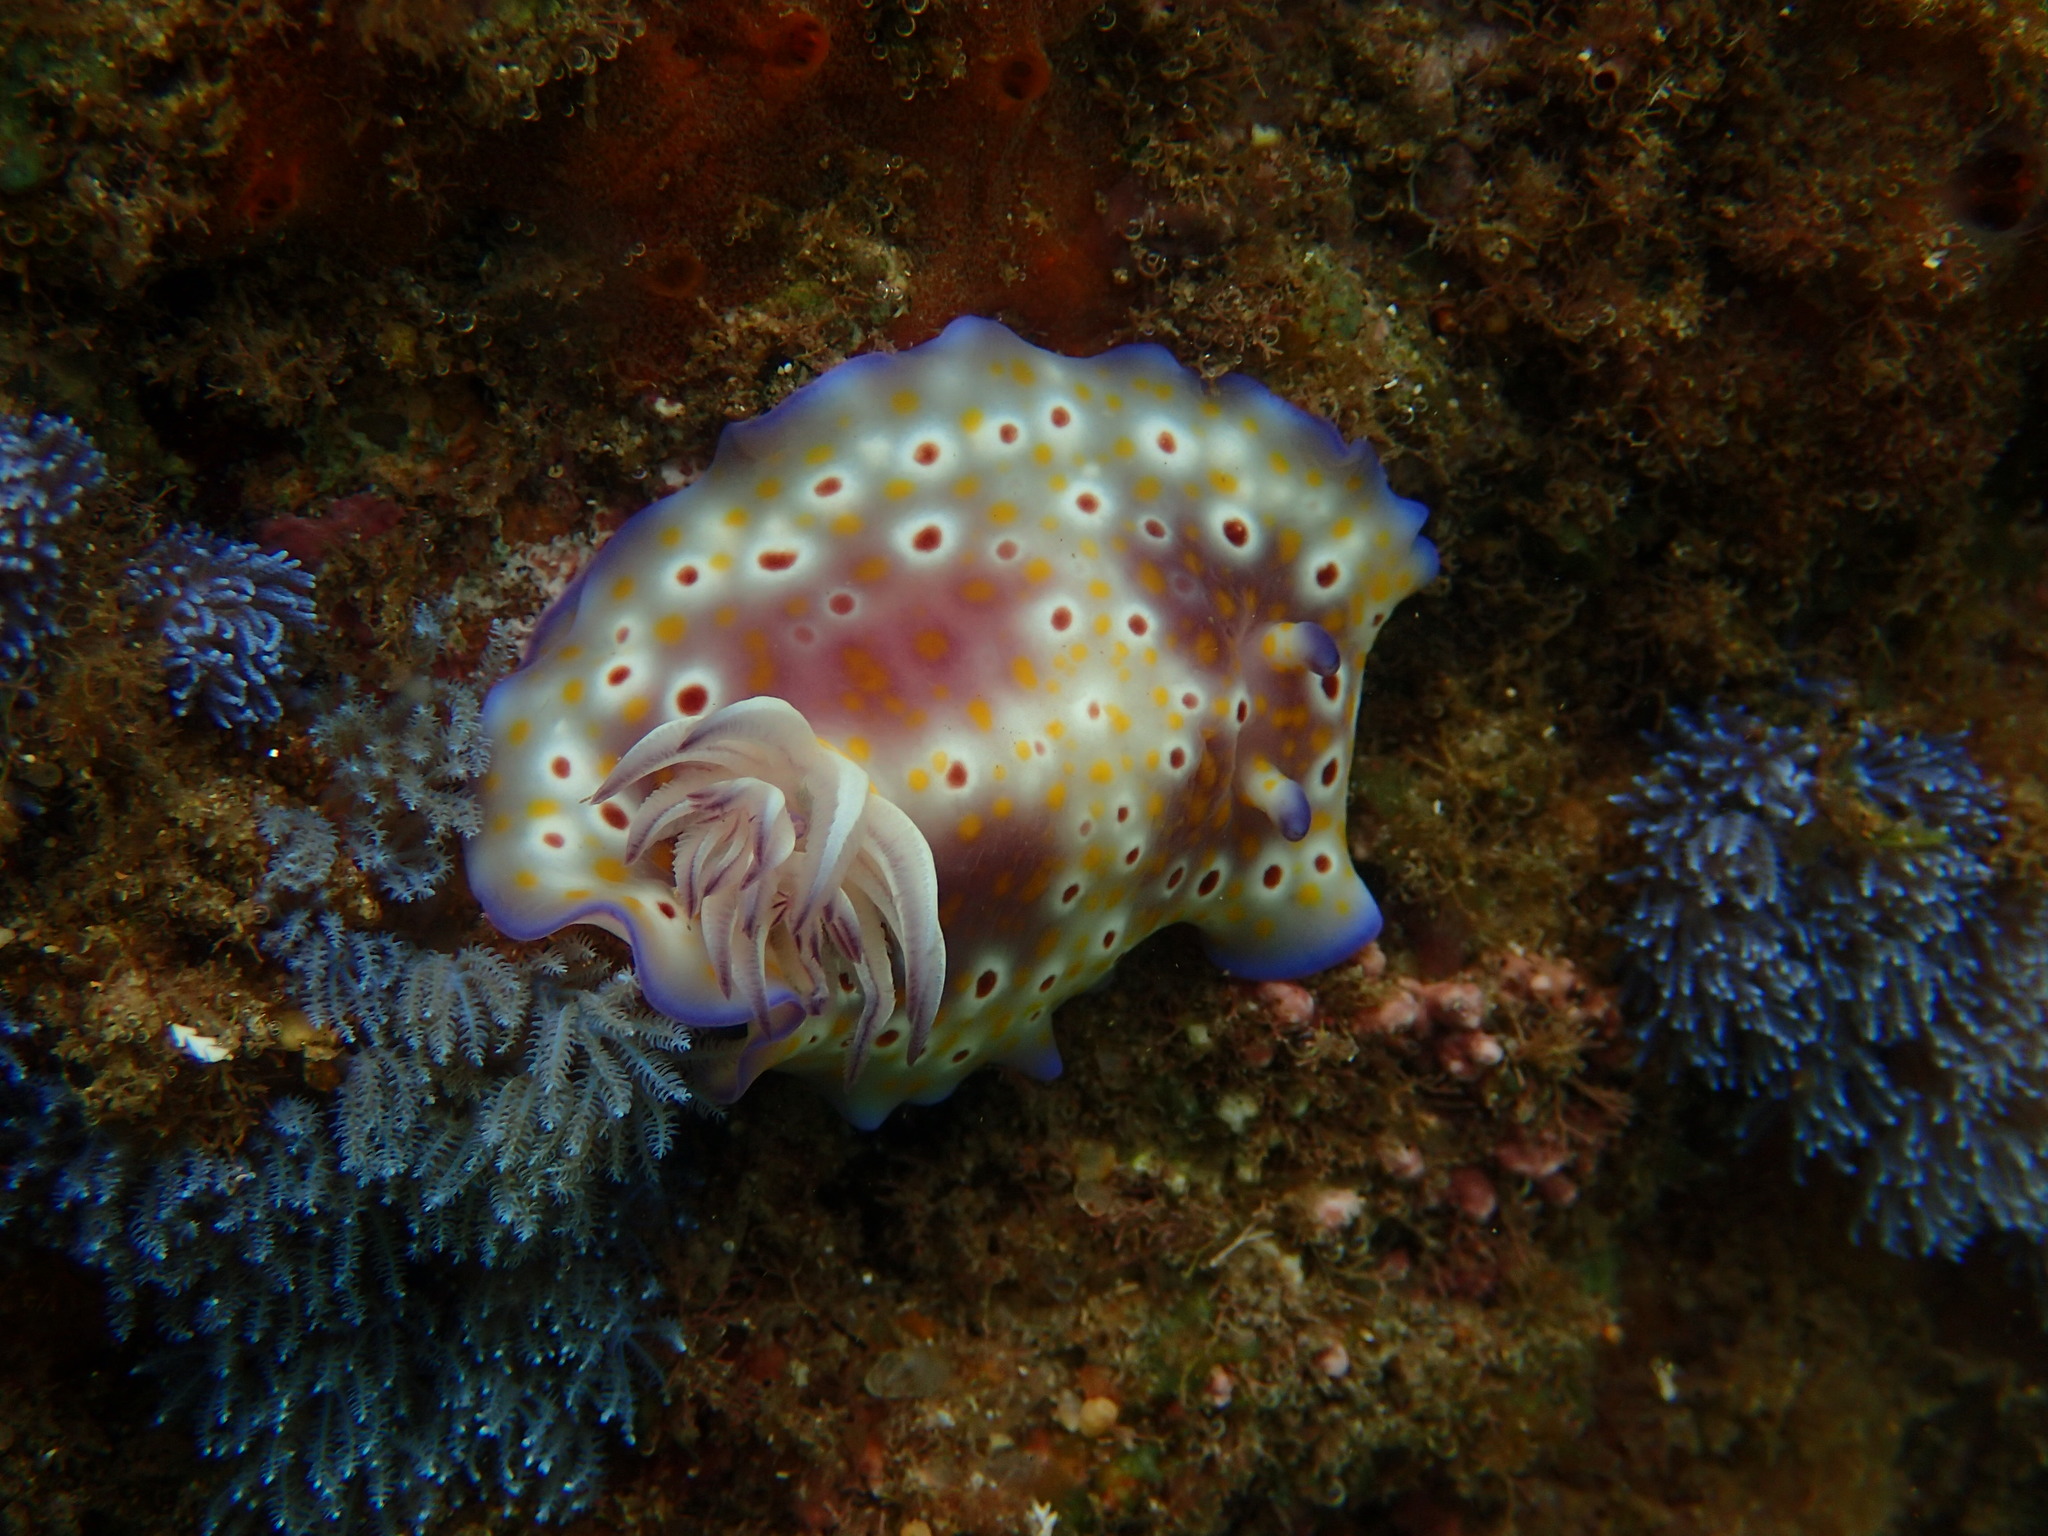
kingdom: Animalia
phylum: Mollusca
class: Gastropoda
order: Nudibranchia
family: Chromodorididae
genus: Goniobranchus
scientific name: Goniobranchus cavae
